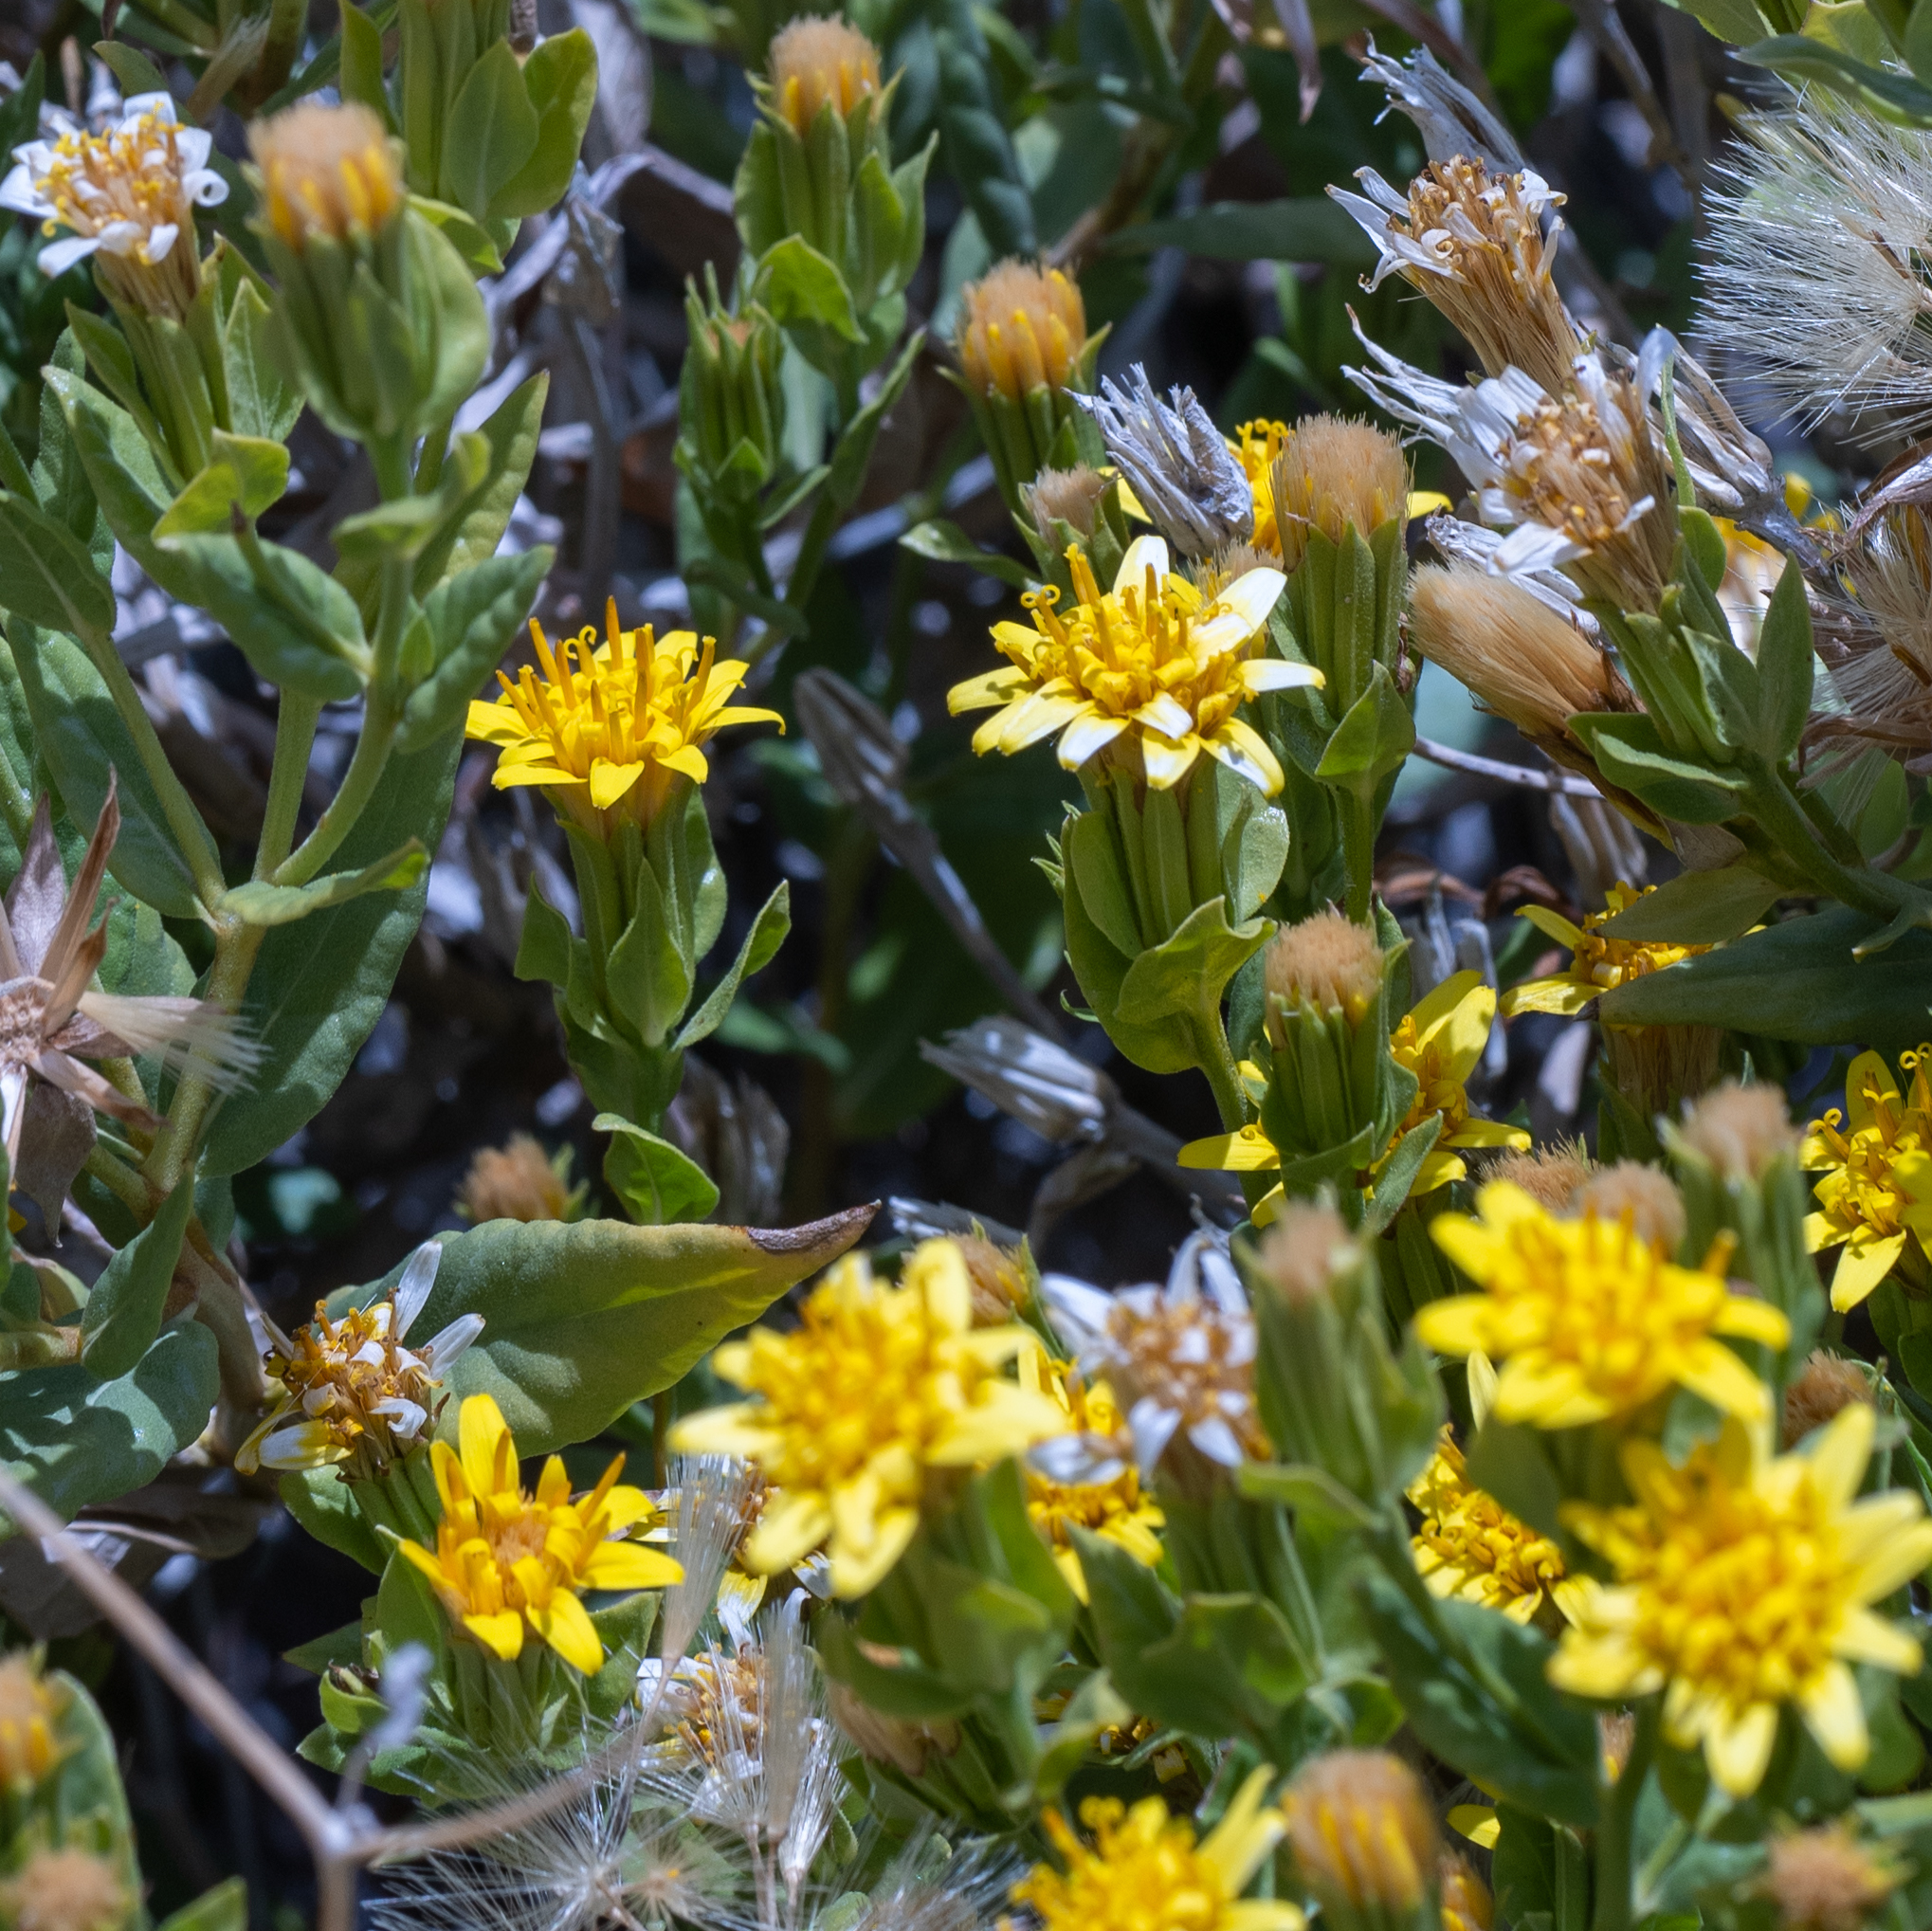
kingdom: Plantae
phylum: Tracheophyta
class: Magnoliopsida
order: Asterales
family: Asteraceae
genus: Trixis
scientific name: Trixis californica
